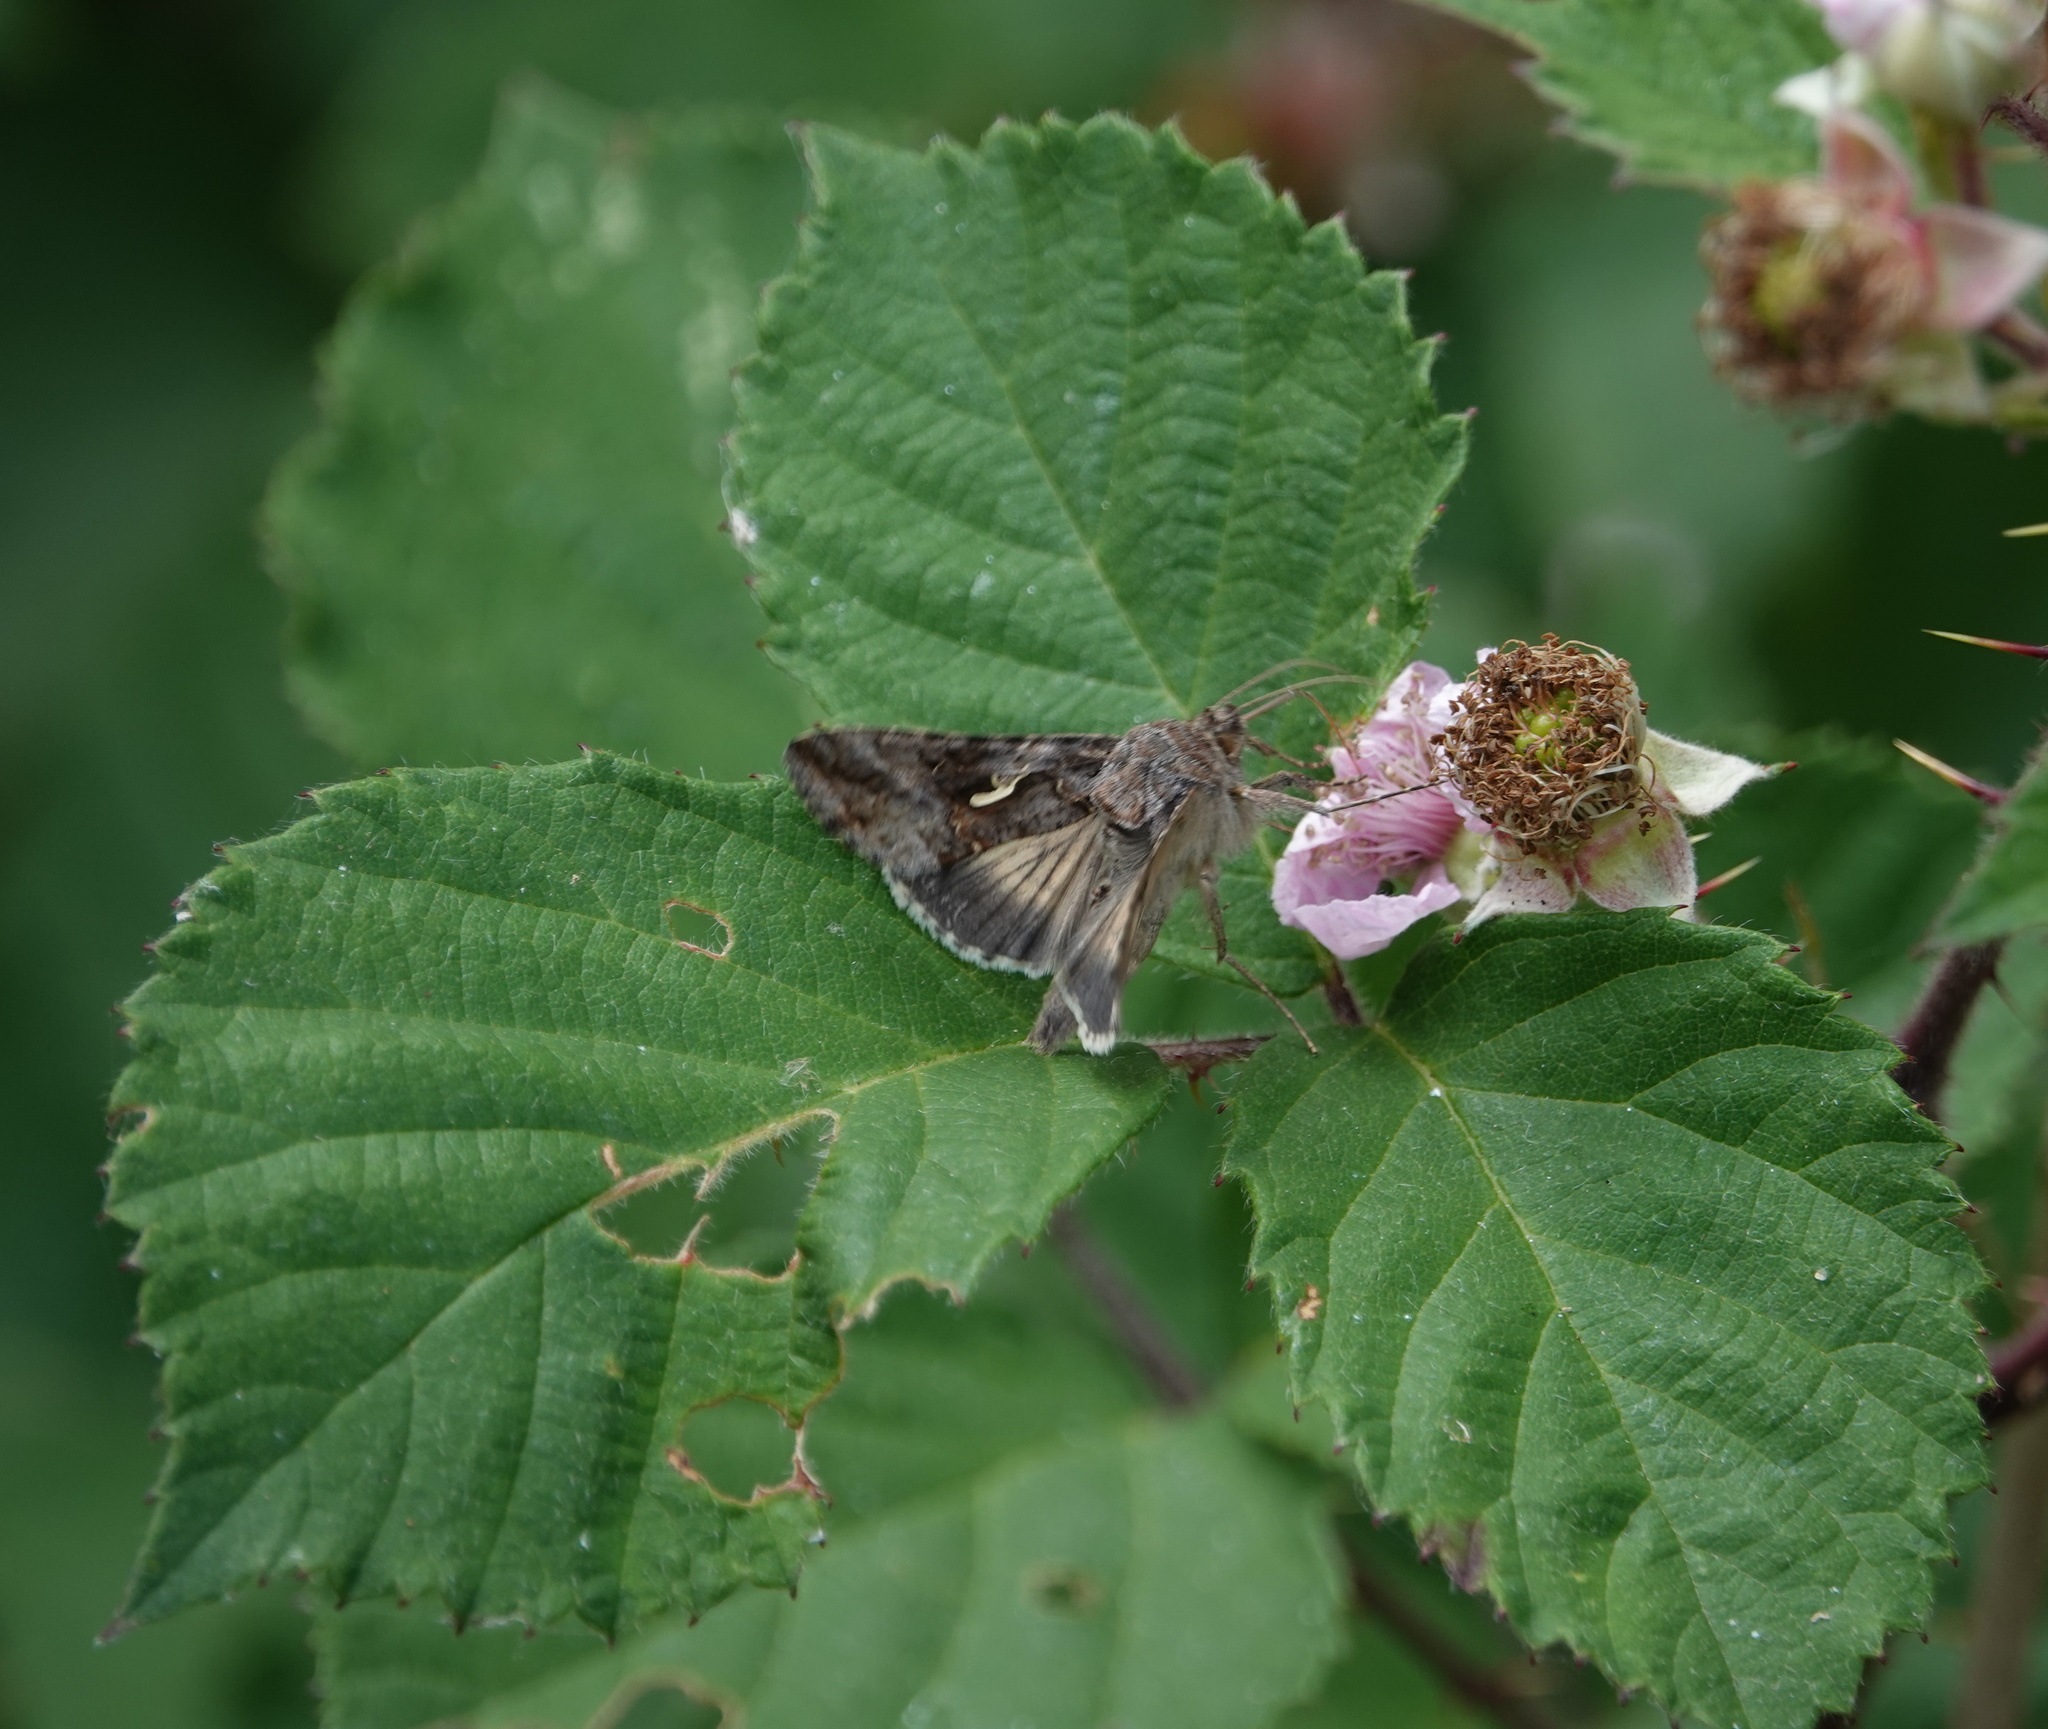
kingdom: Animalia
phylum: Arthropoda
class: Insecta
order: Lepidoptera
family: Noctuidae
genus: Autographa
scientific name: Autographa gamma
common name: Silver y
